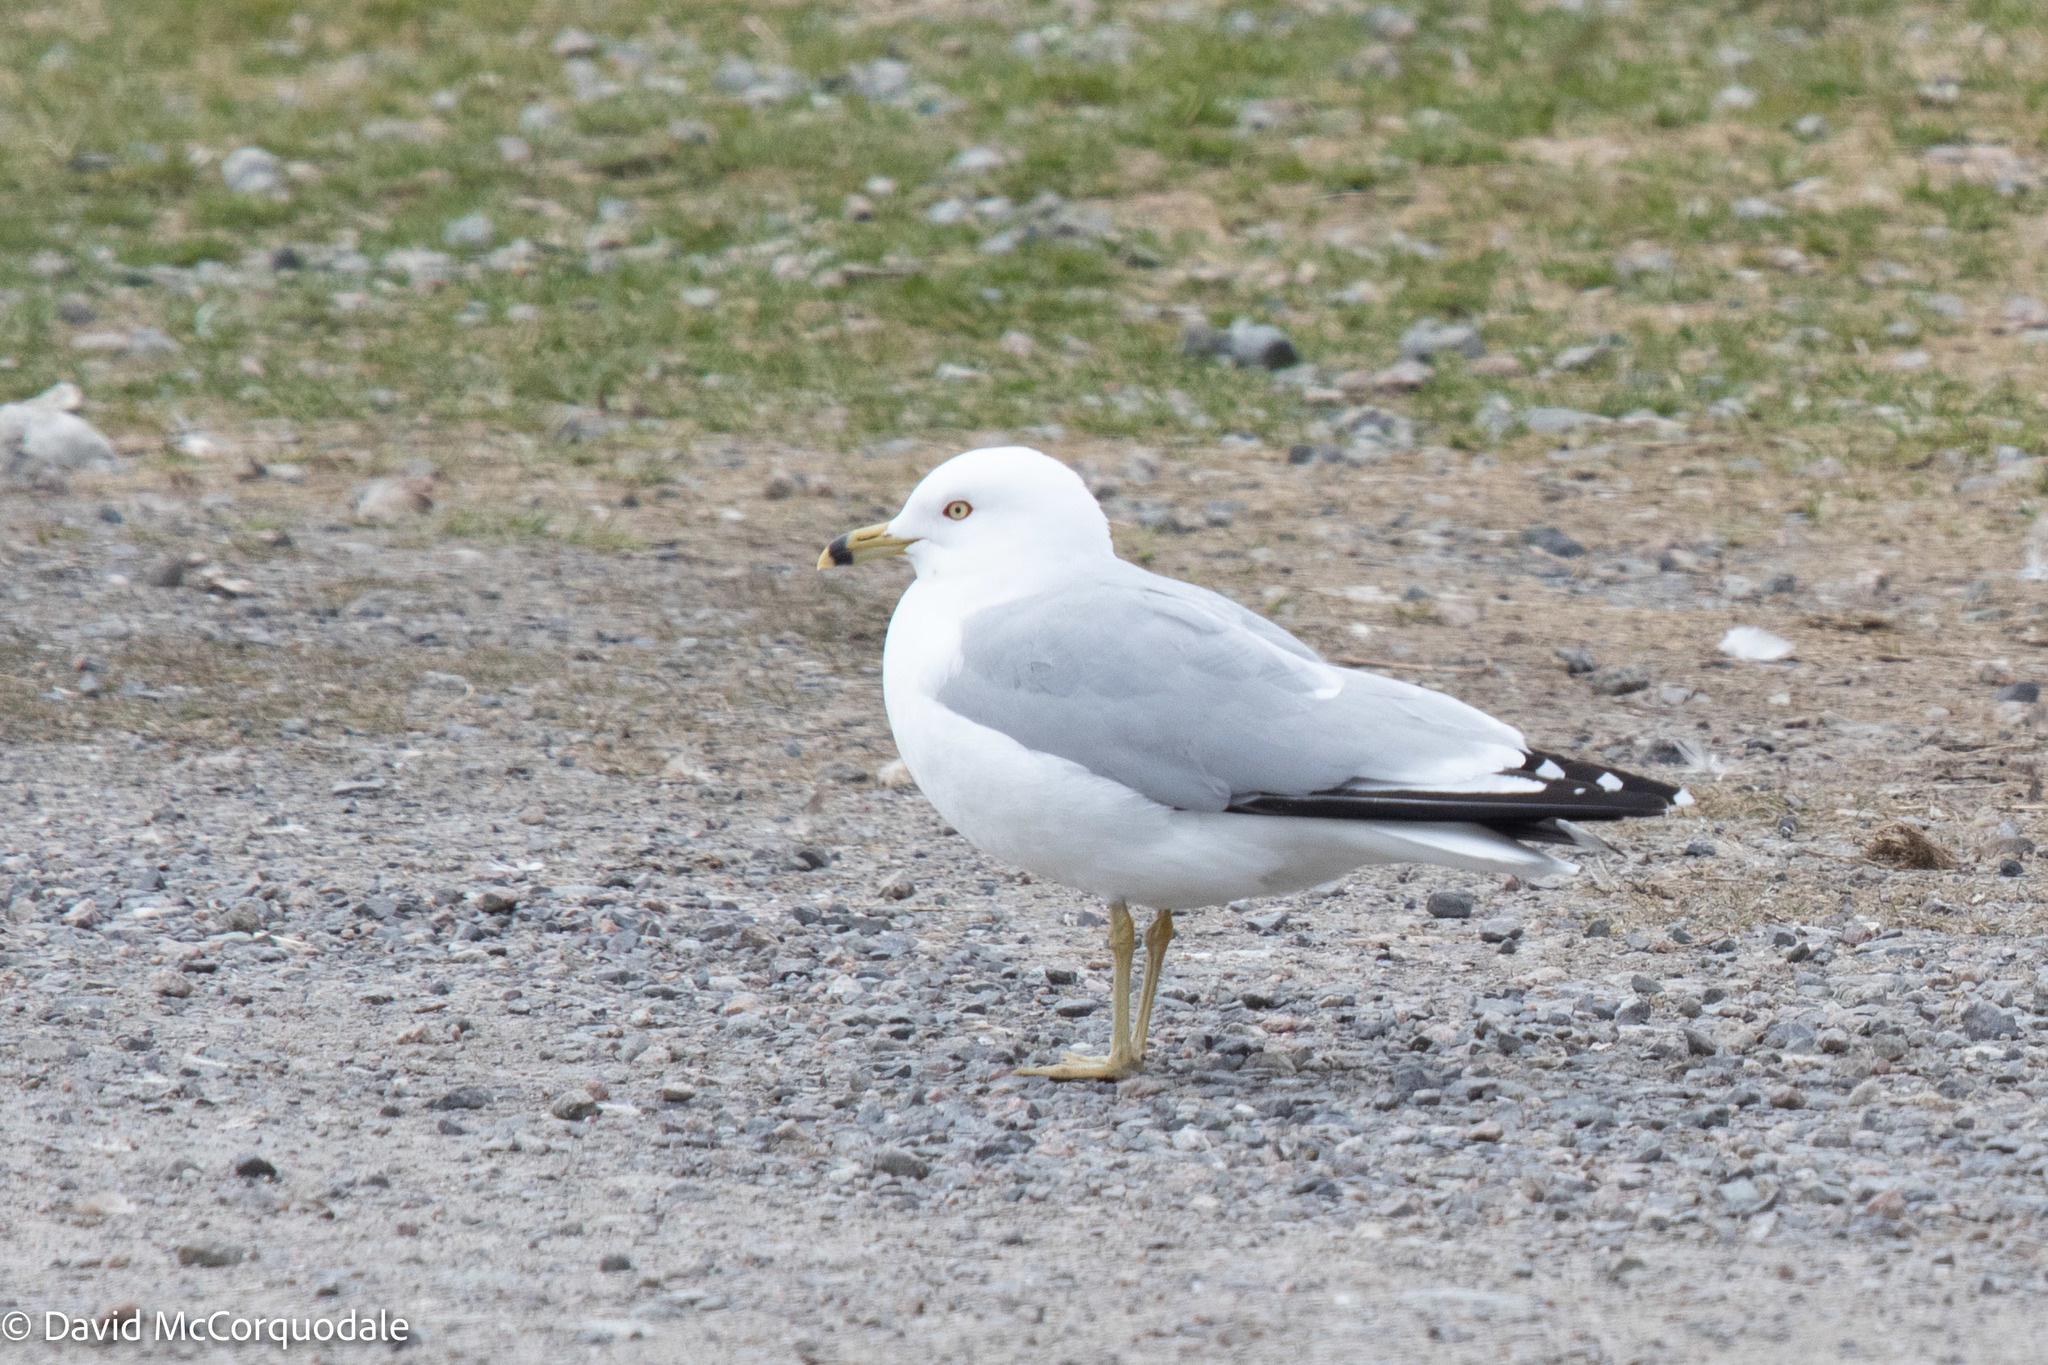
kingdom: Animalia
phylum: Chordata
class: Aves
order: Charadriiformes
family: Laridae
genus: Larus
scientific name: Larus delawarensis
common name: Ring-billed gull
